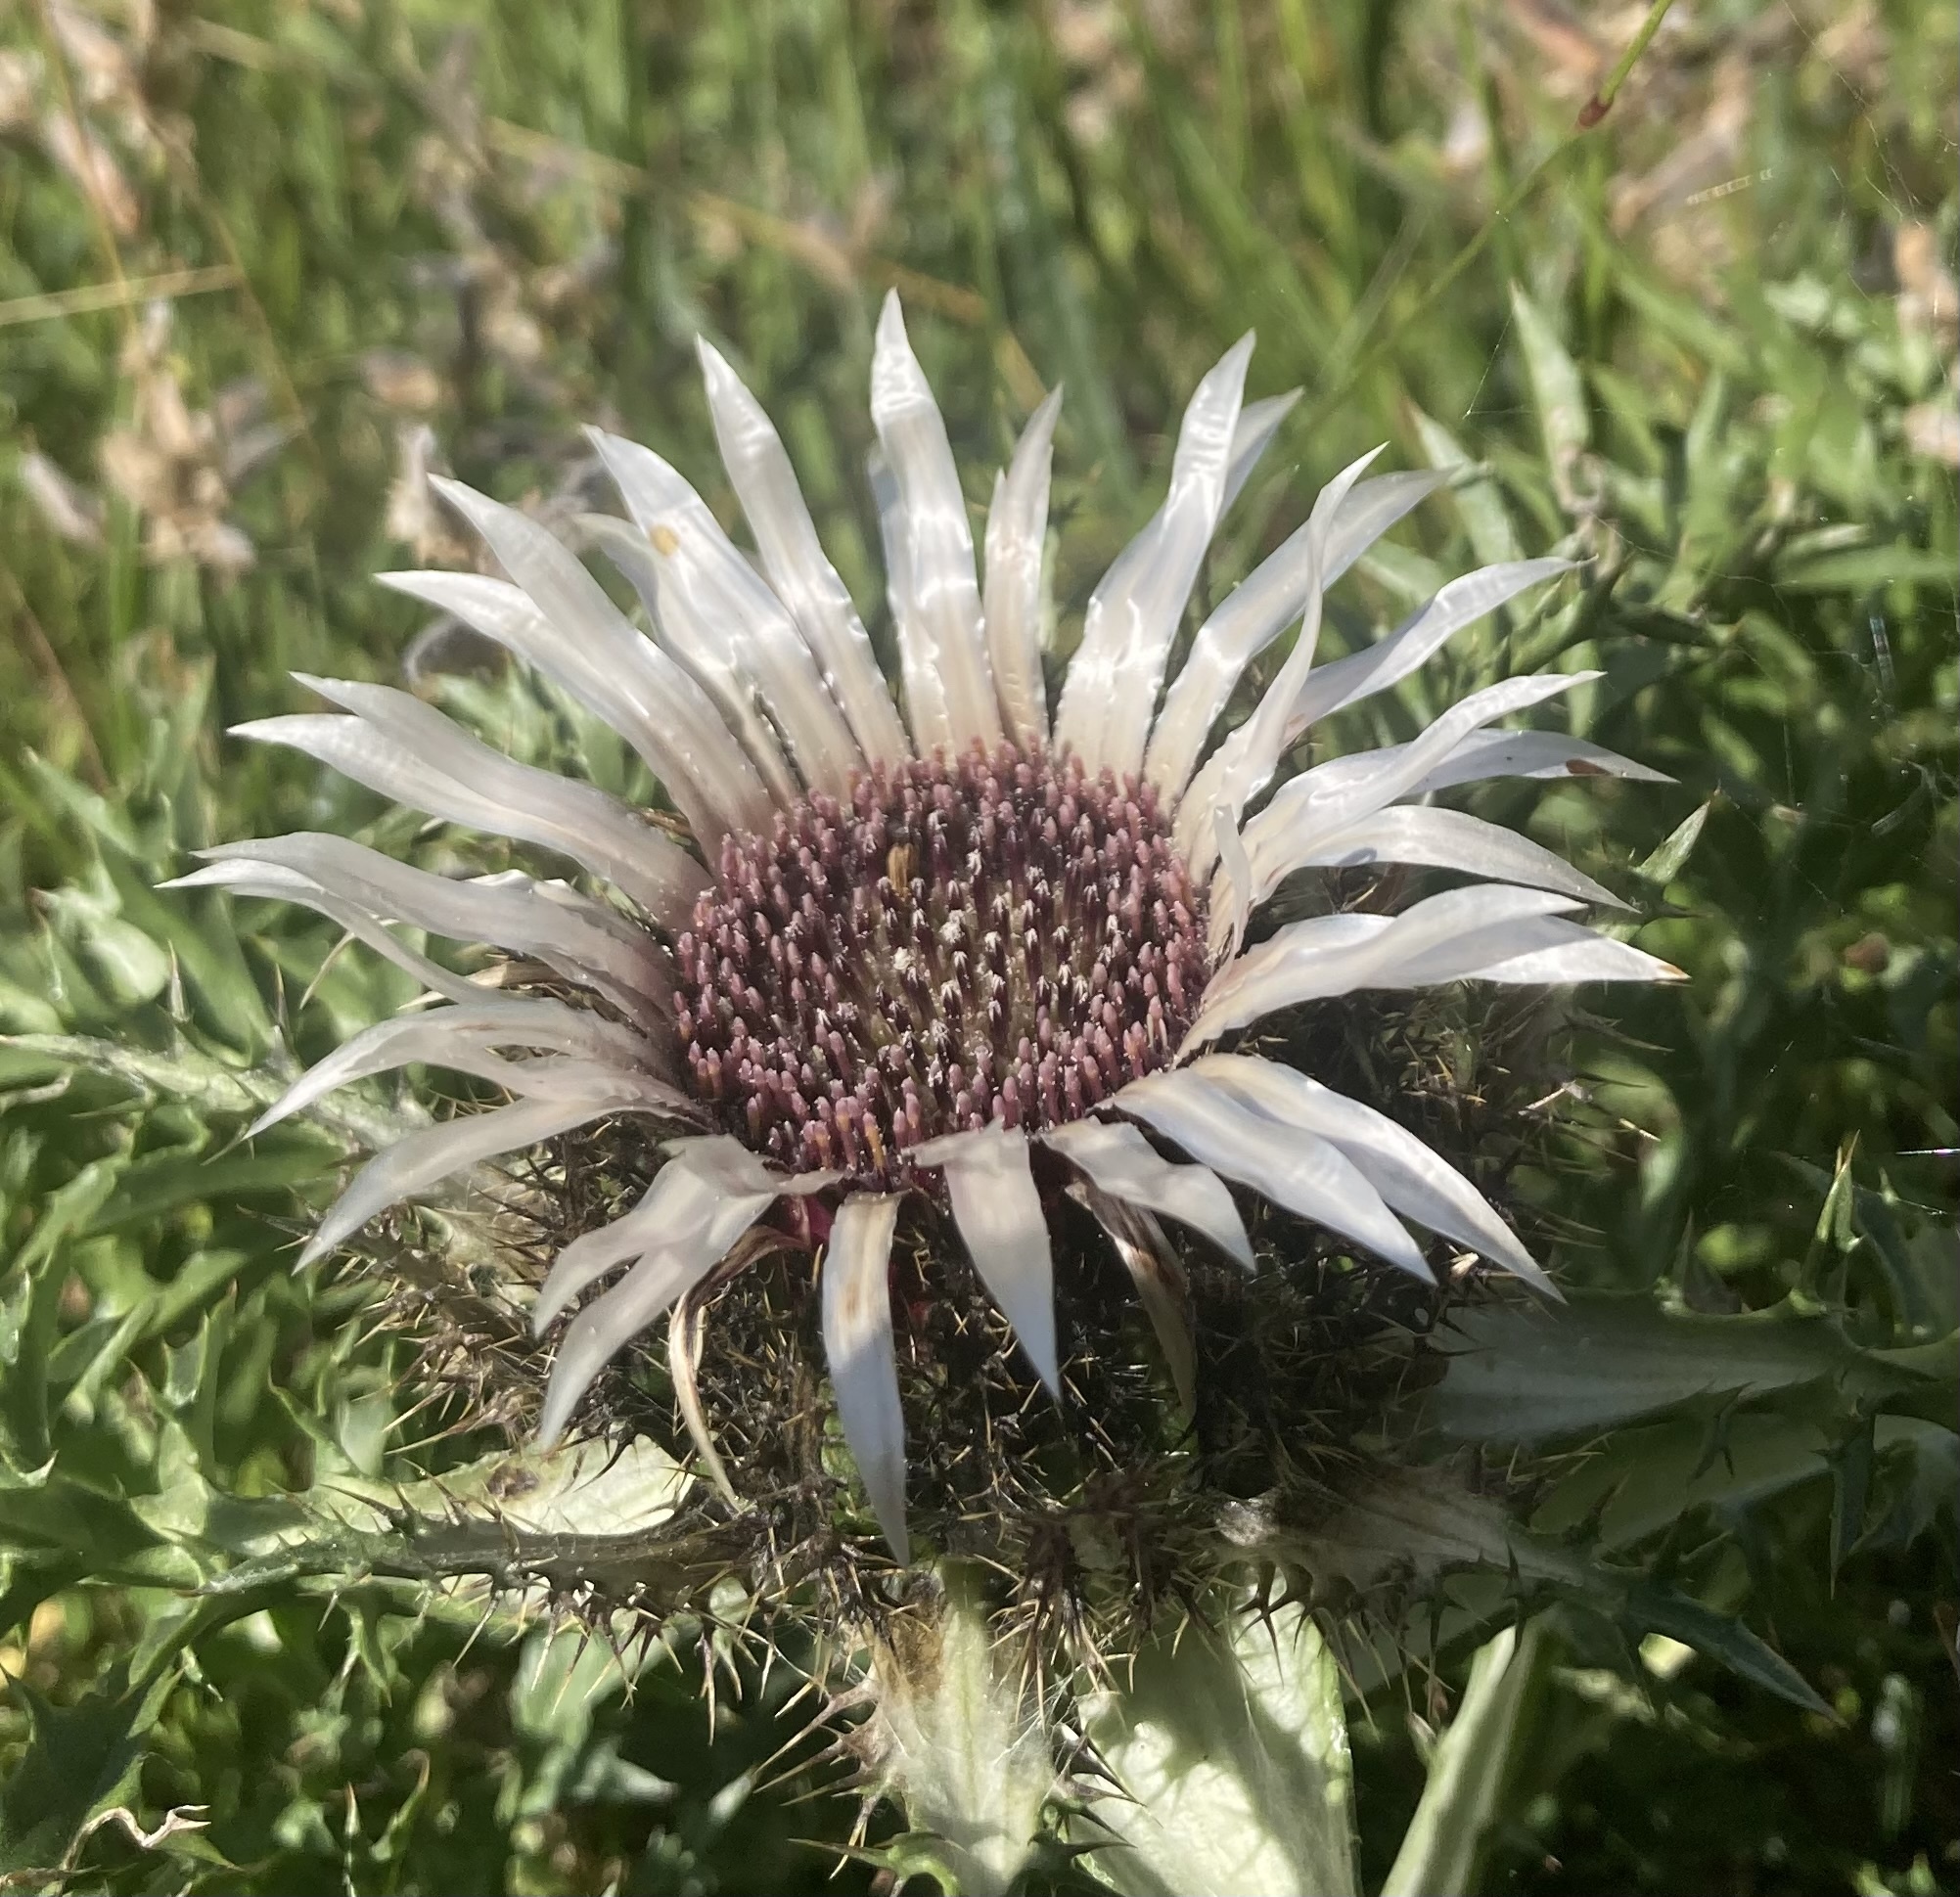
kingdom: Plantae
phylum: Tracheophyta
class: Magnoliopsida
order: Asterales
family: Asteraceae
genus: Carlina
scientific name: Carlina acaulis
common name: Stemless carline thistle
